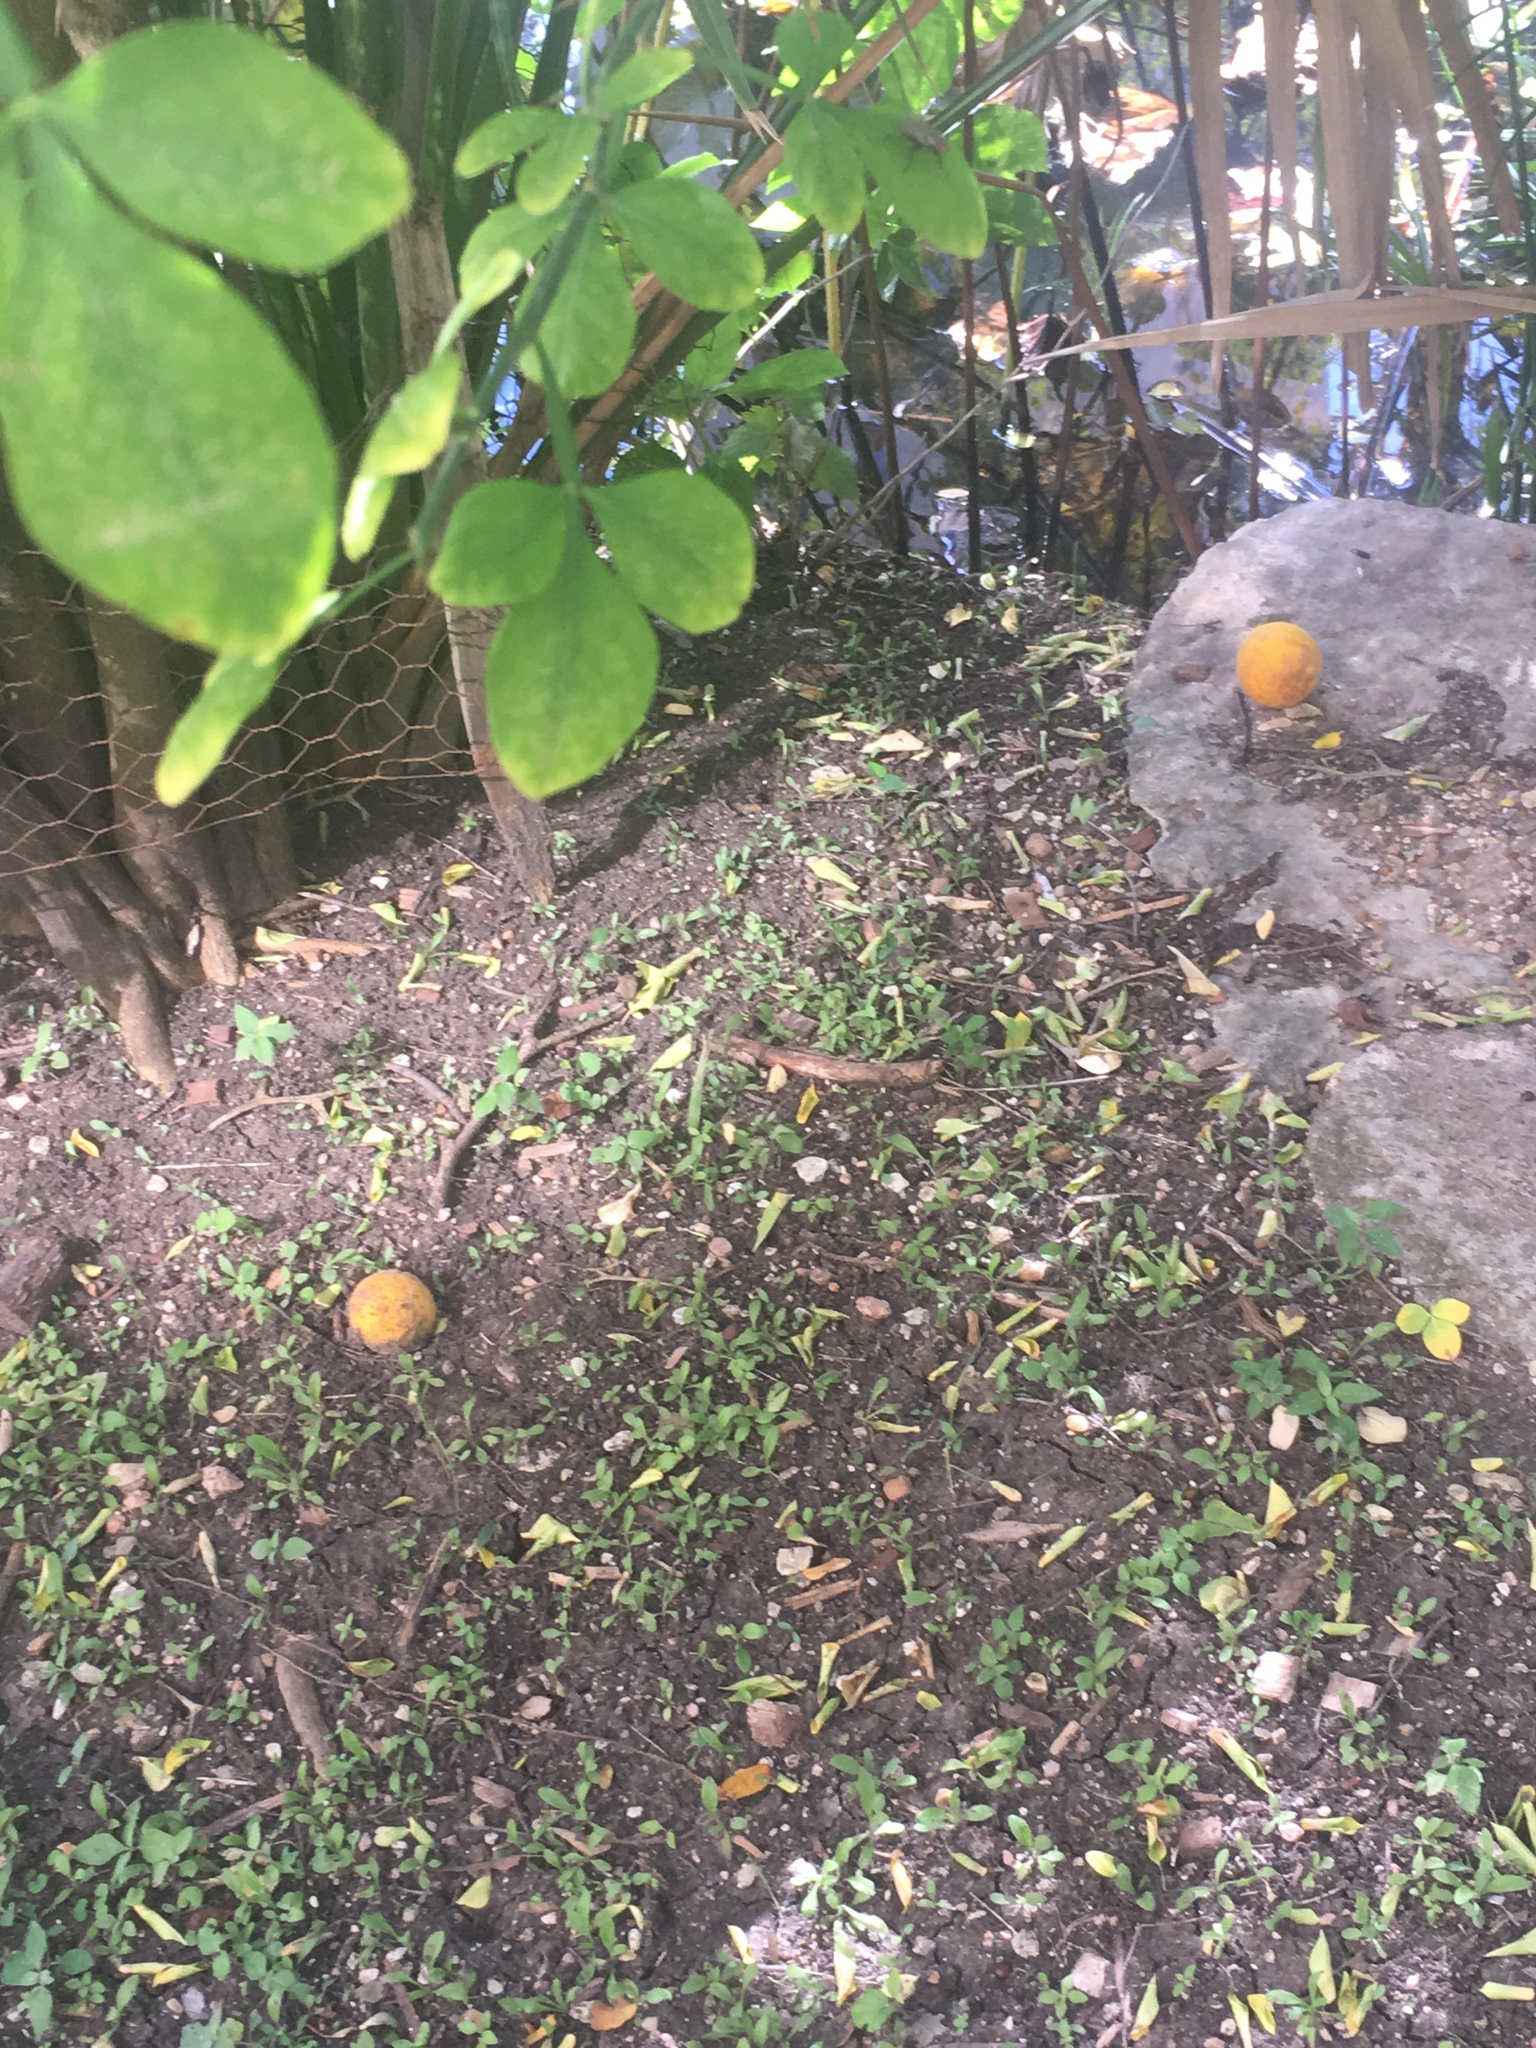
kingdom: Plantae
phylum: Tracheophyta
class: Magnoliopsida
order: Sapindales
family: Rutaceae
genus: Citrus
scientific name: Citrus trifoliata
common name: Japanese bitter-orange
